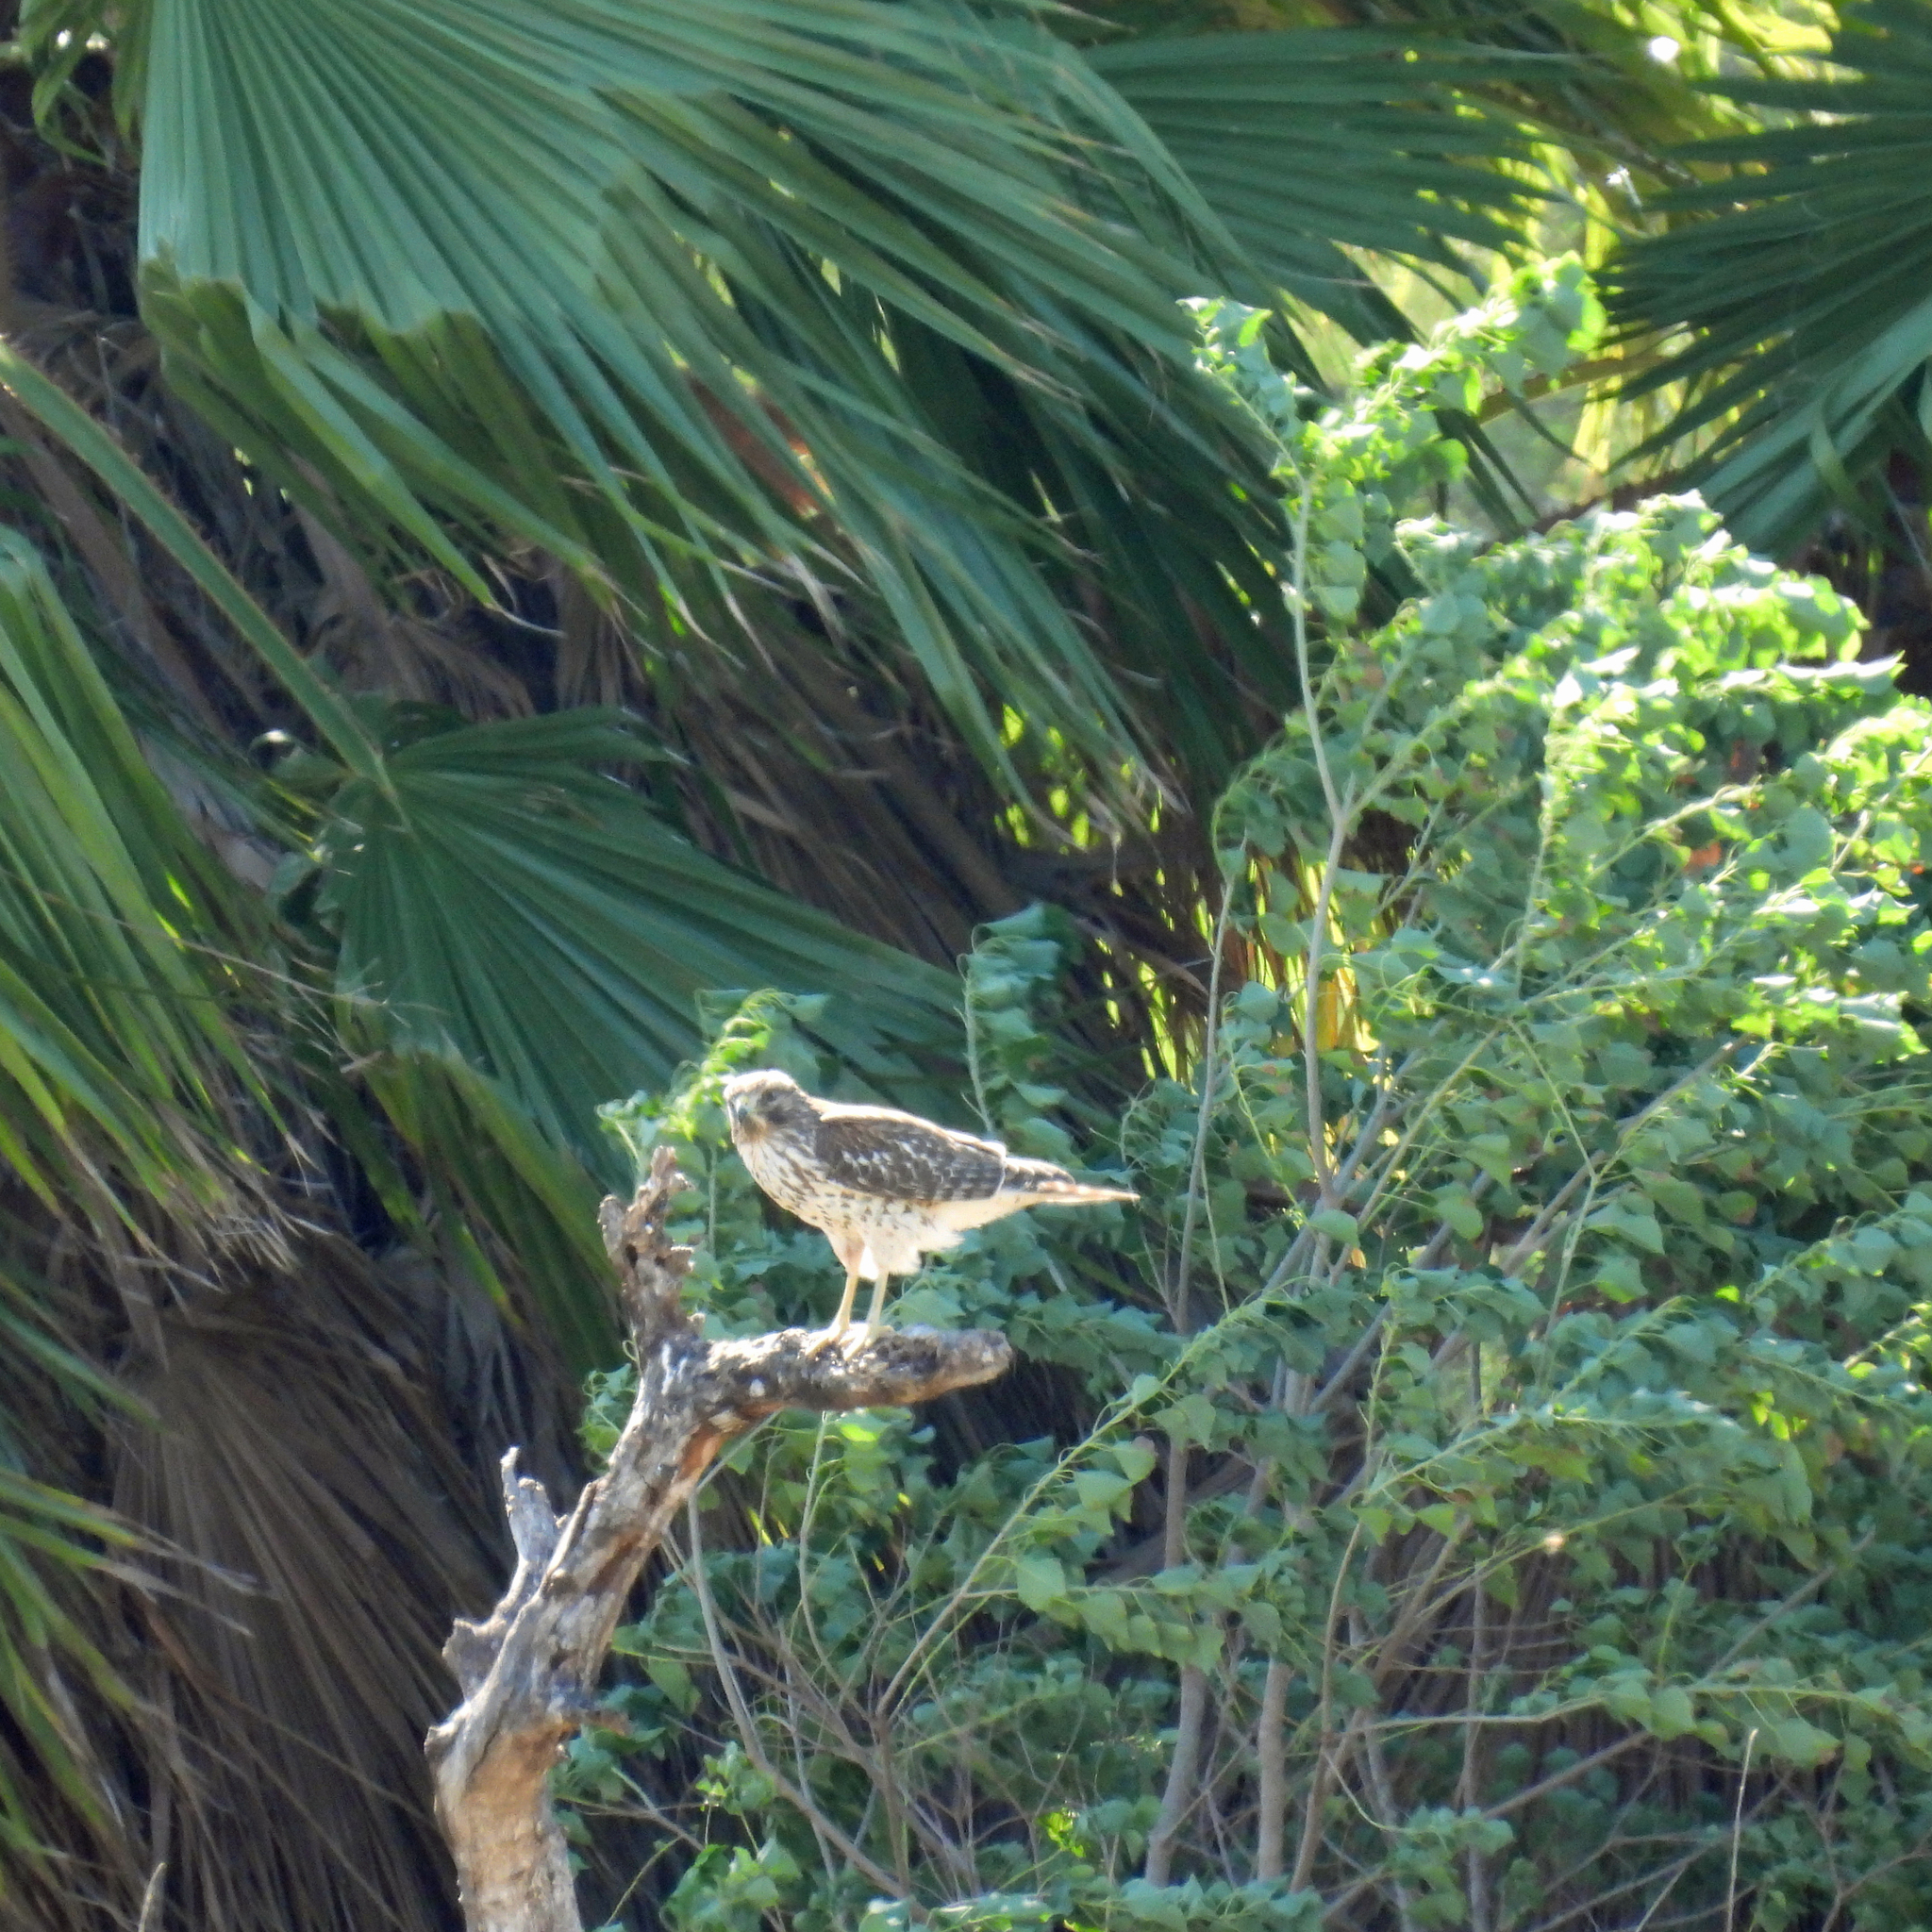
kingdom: Animalia
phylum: Chordata
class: Aves
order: Accipitriformes
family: Accipitridae
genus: Buteo
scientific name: Buteo lineatus
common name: Red-shouldered hawk
